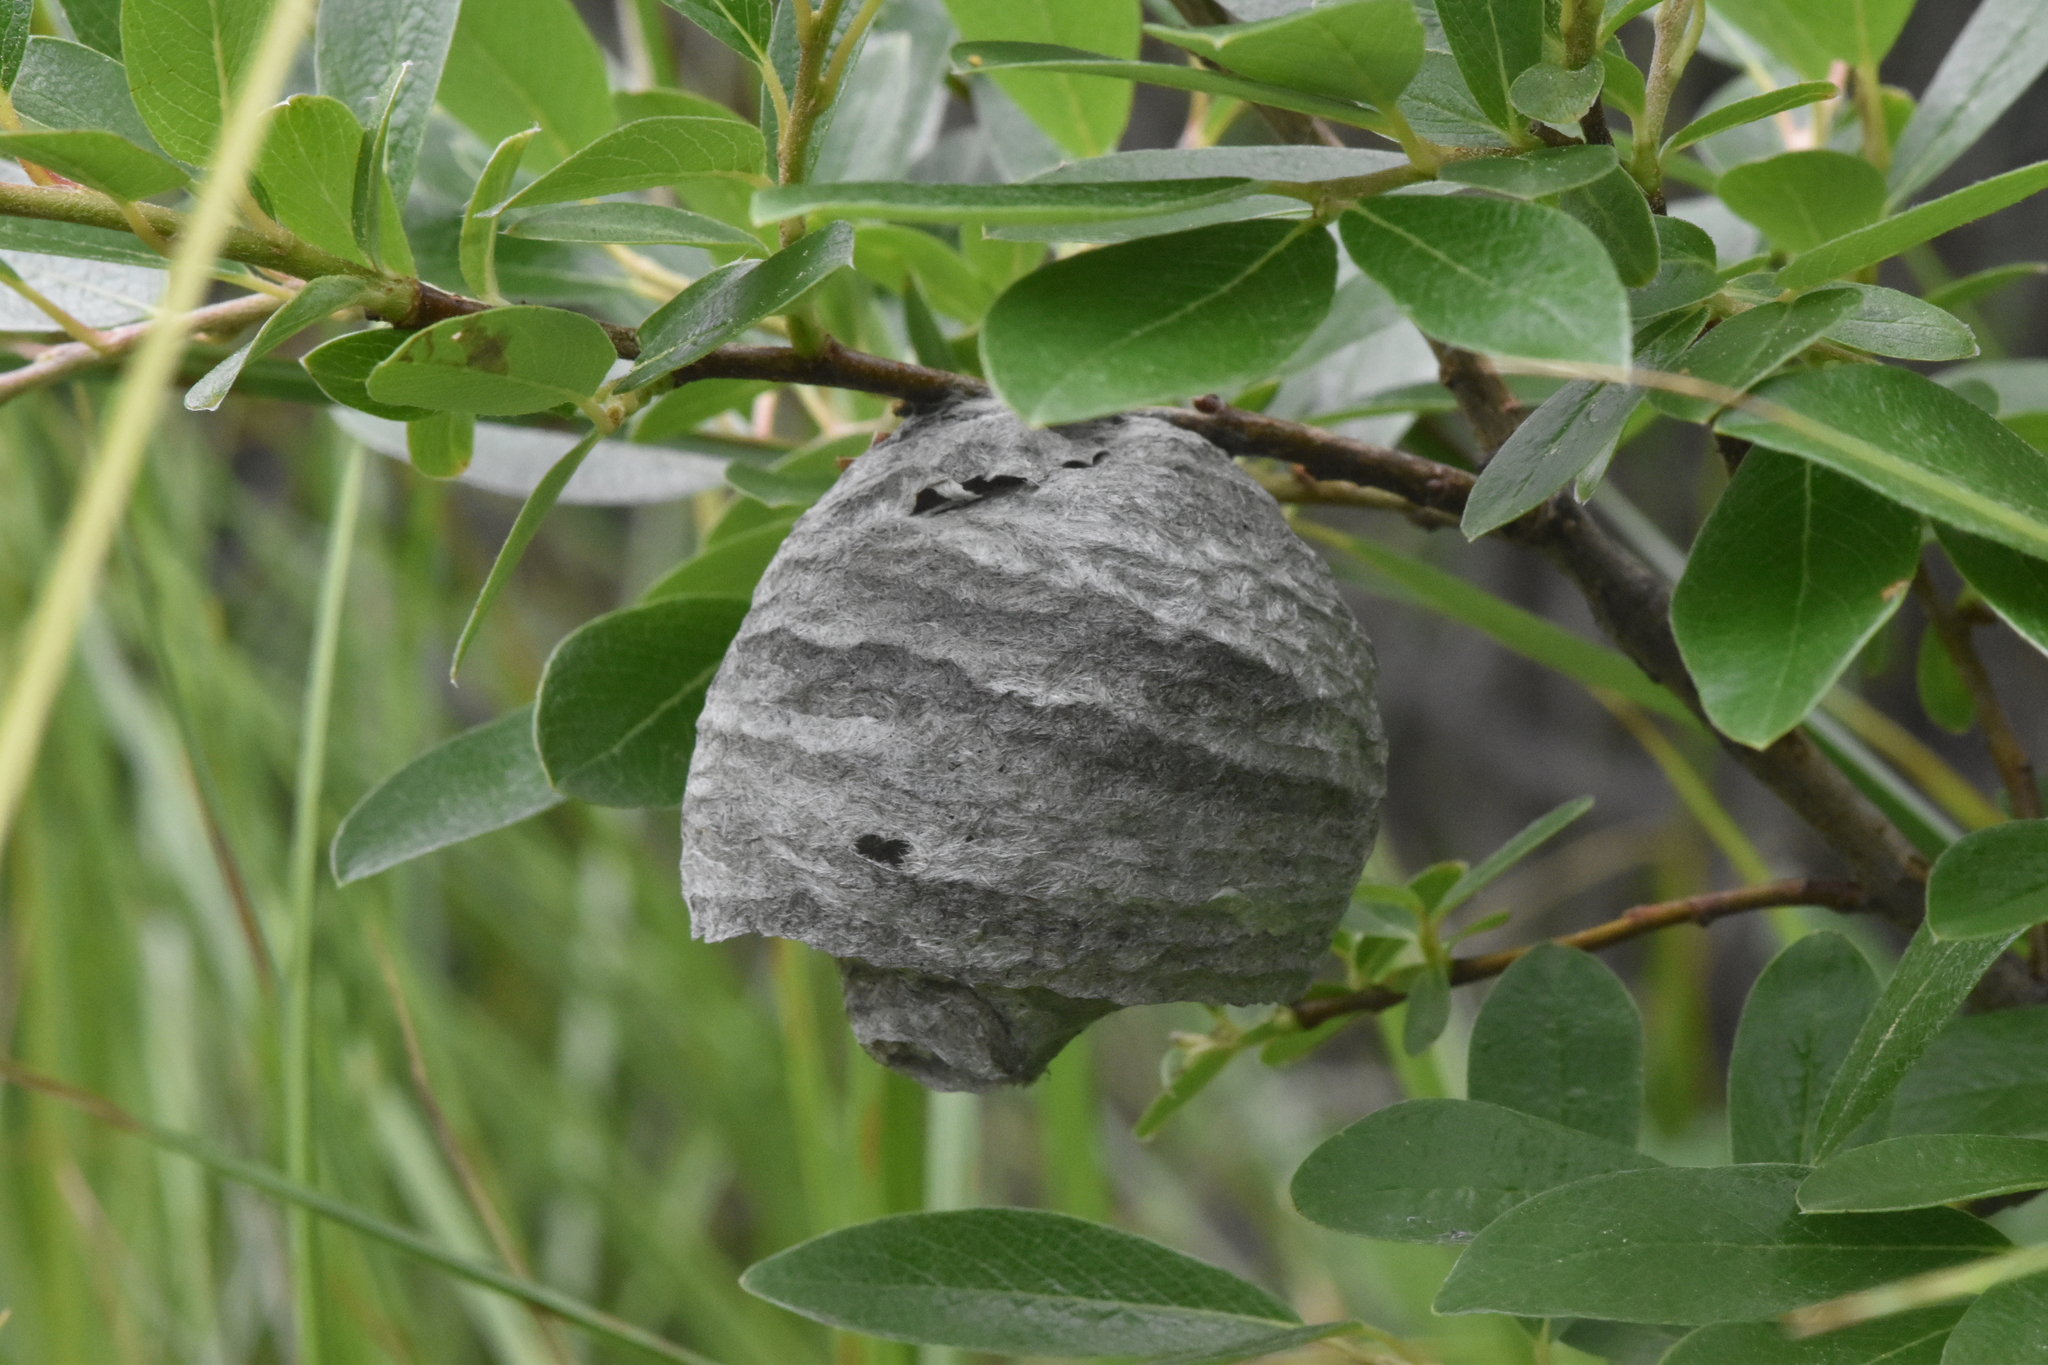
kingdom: Animalia
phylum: Arthropoda
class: Insecta
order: Hymenoptera
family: Vespidae
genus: Dolichovespula
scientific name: Dolichovespula
